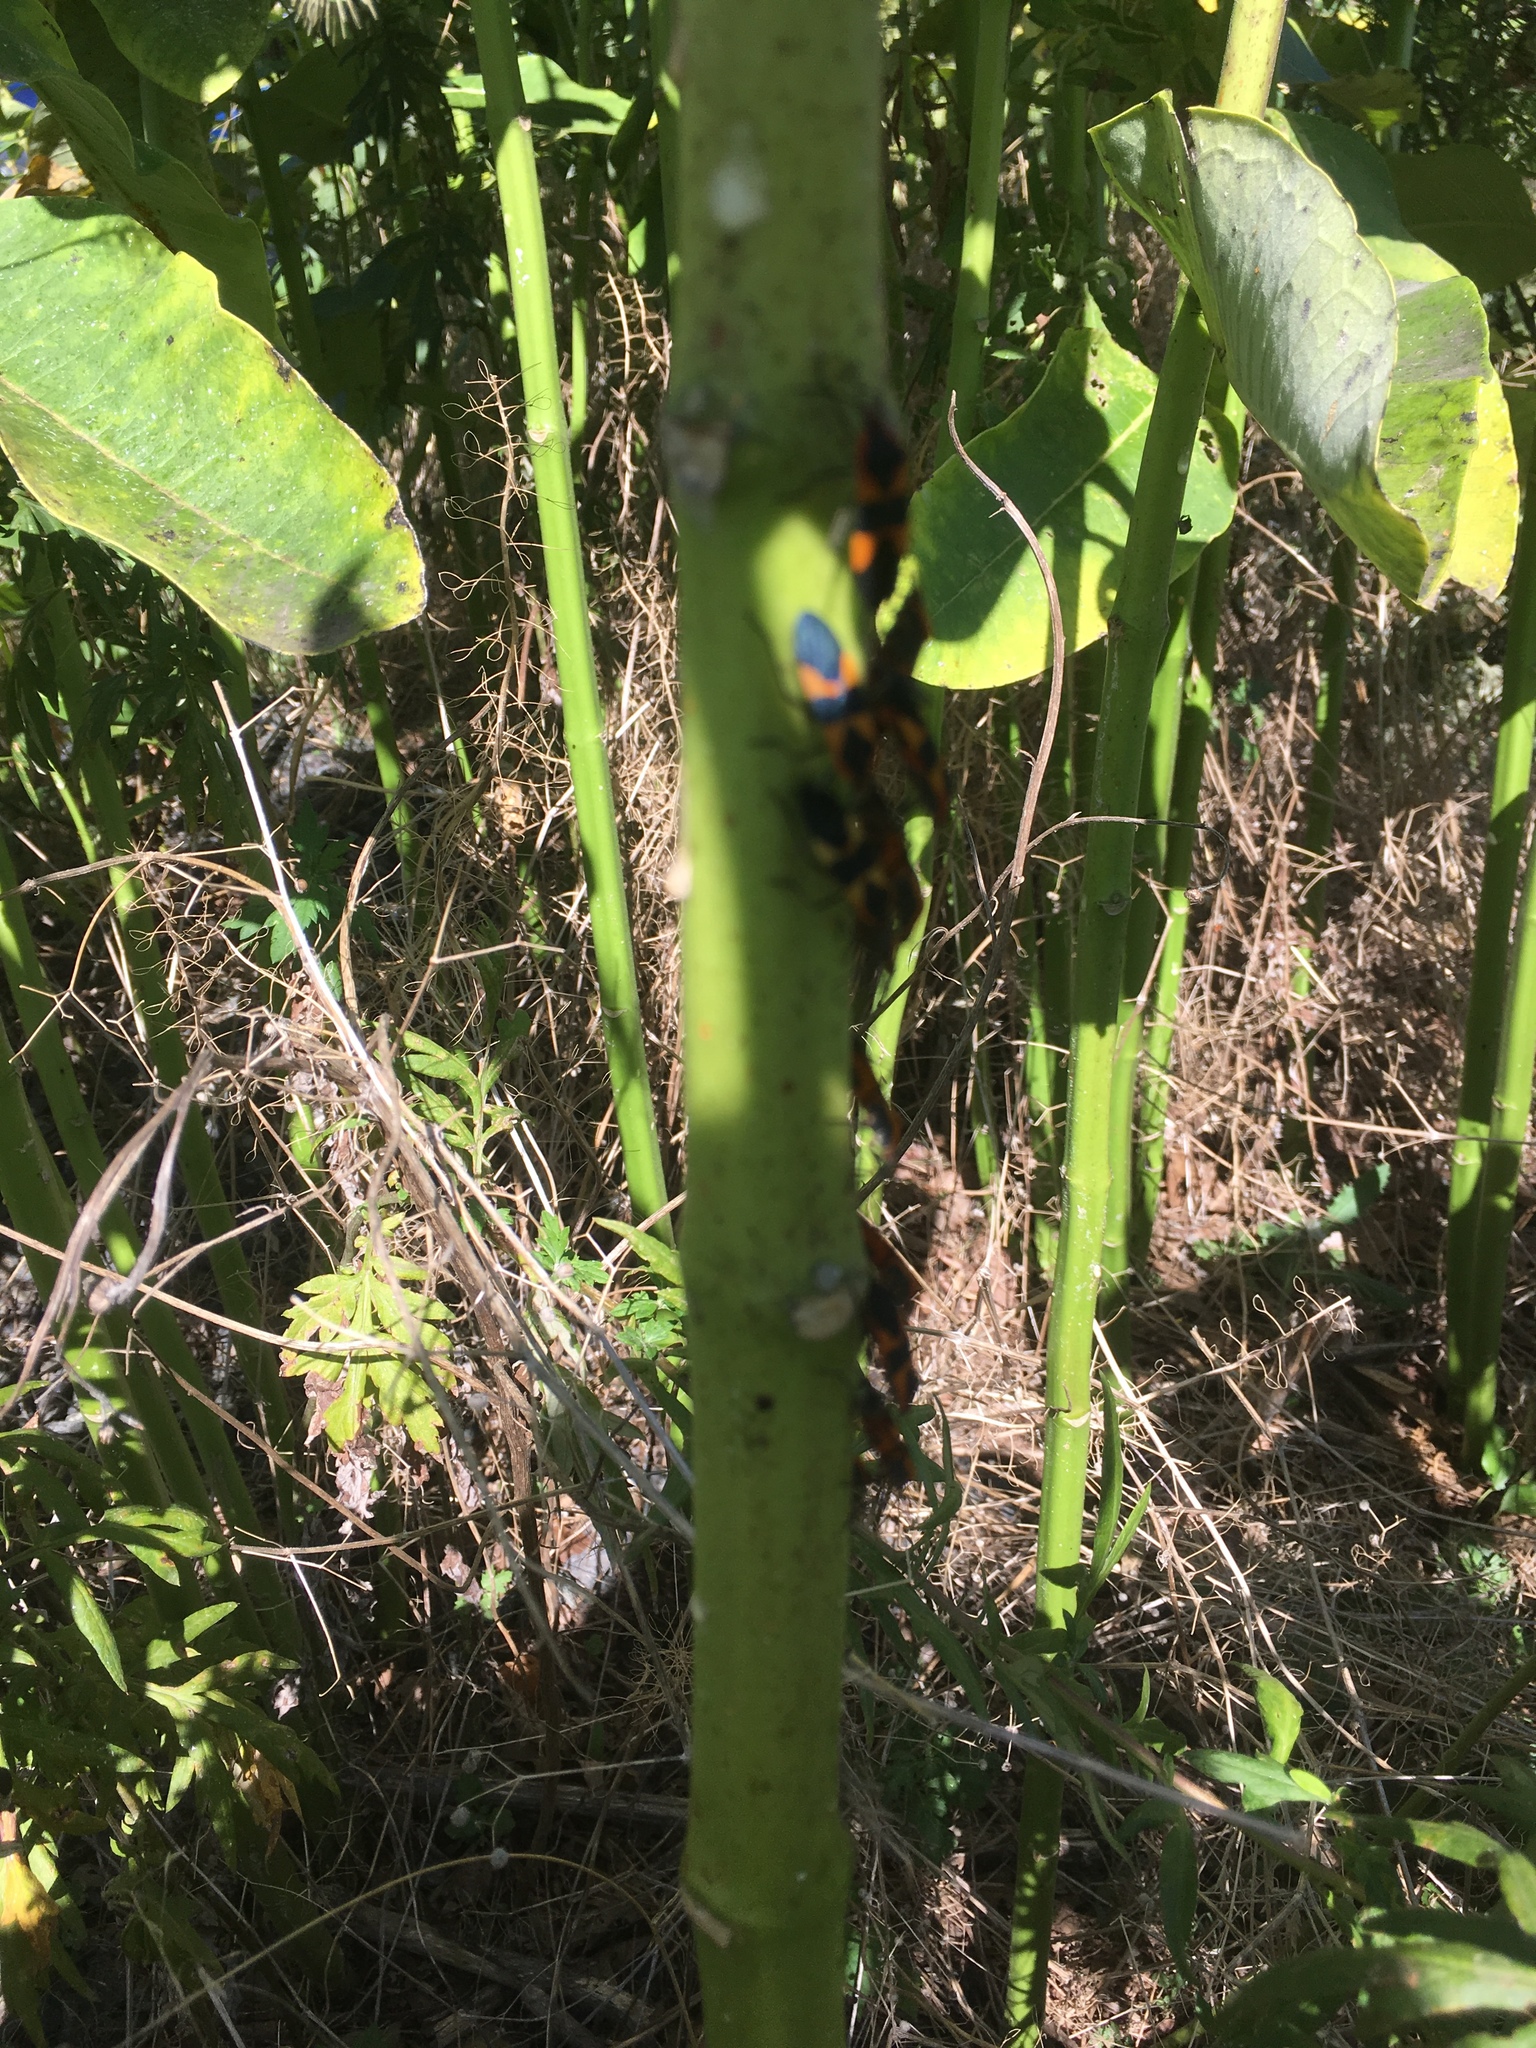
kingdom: Animalia
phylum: Arthropoda
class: Insecta
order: Hemiptera
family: Lygaeidae
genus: Oncopeltus
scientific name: Oncopeltus fasciatus
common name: Large milkweed bug
